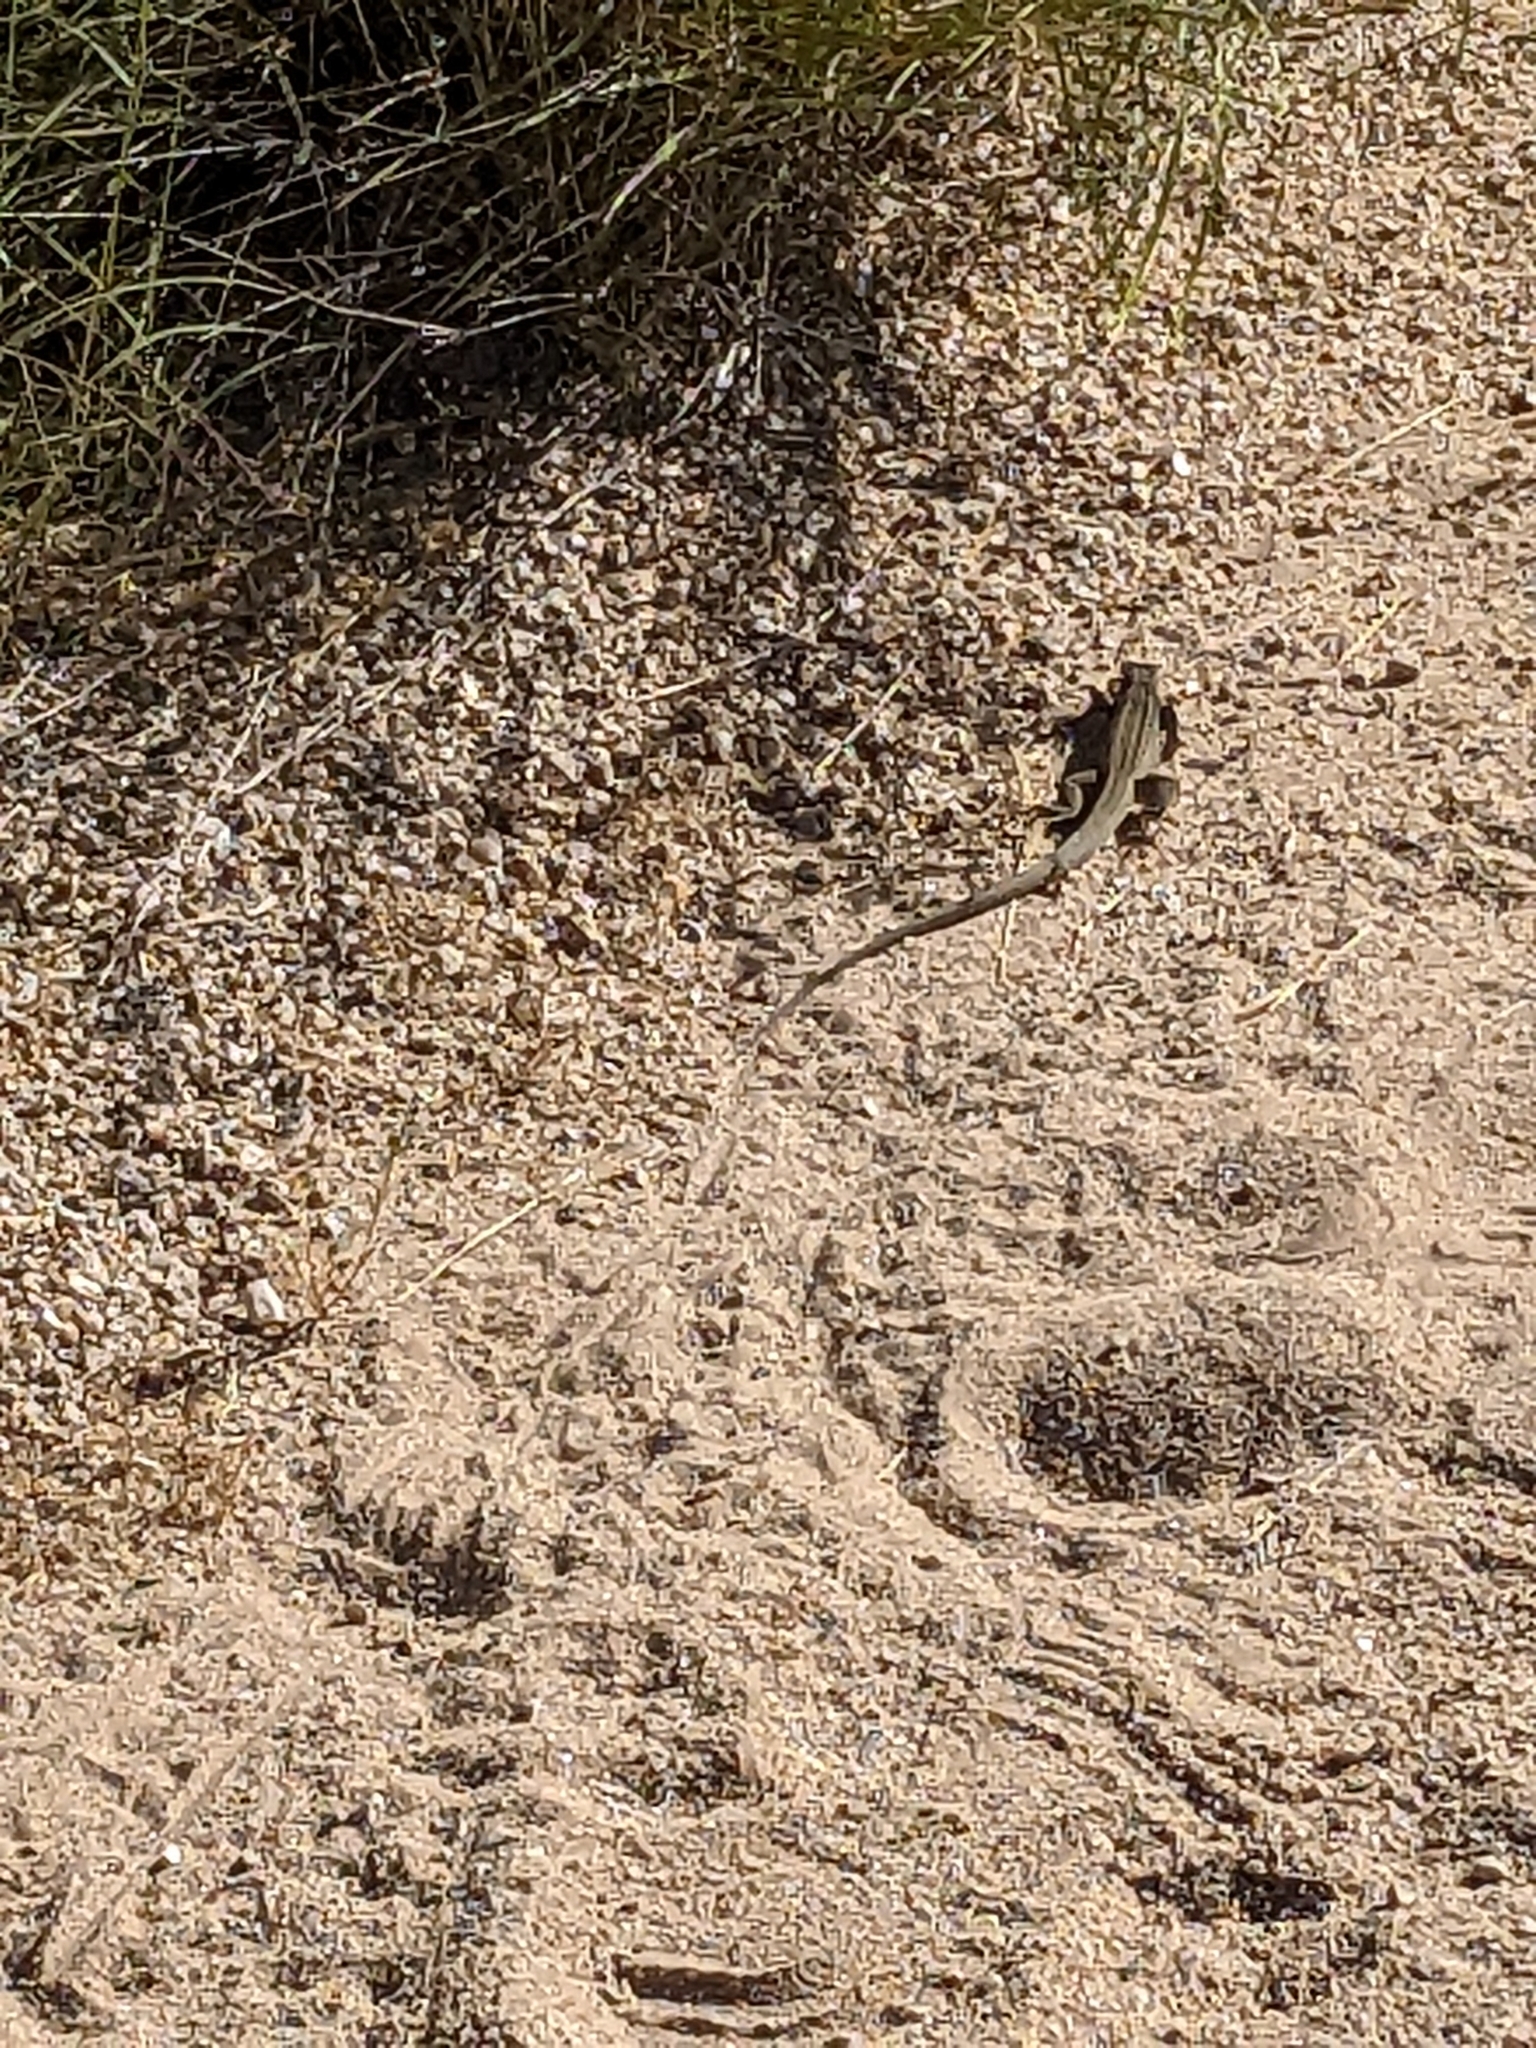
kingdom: Animalia
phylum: Chordata
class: Squamata
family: Teiidae
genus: Aspidoscelis
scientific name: Aspidoscelis tigris
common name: Tiger whiptail
